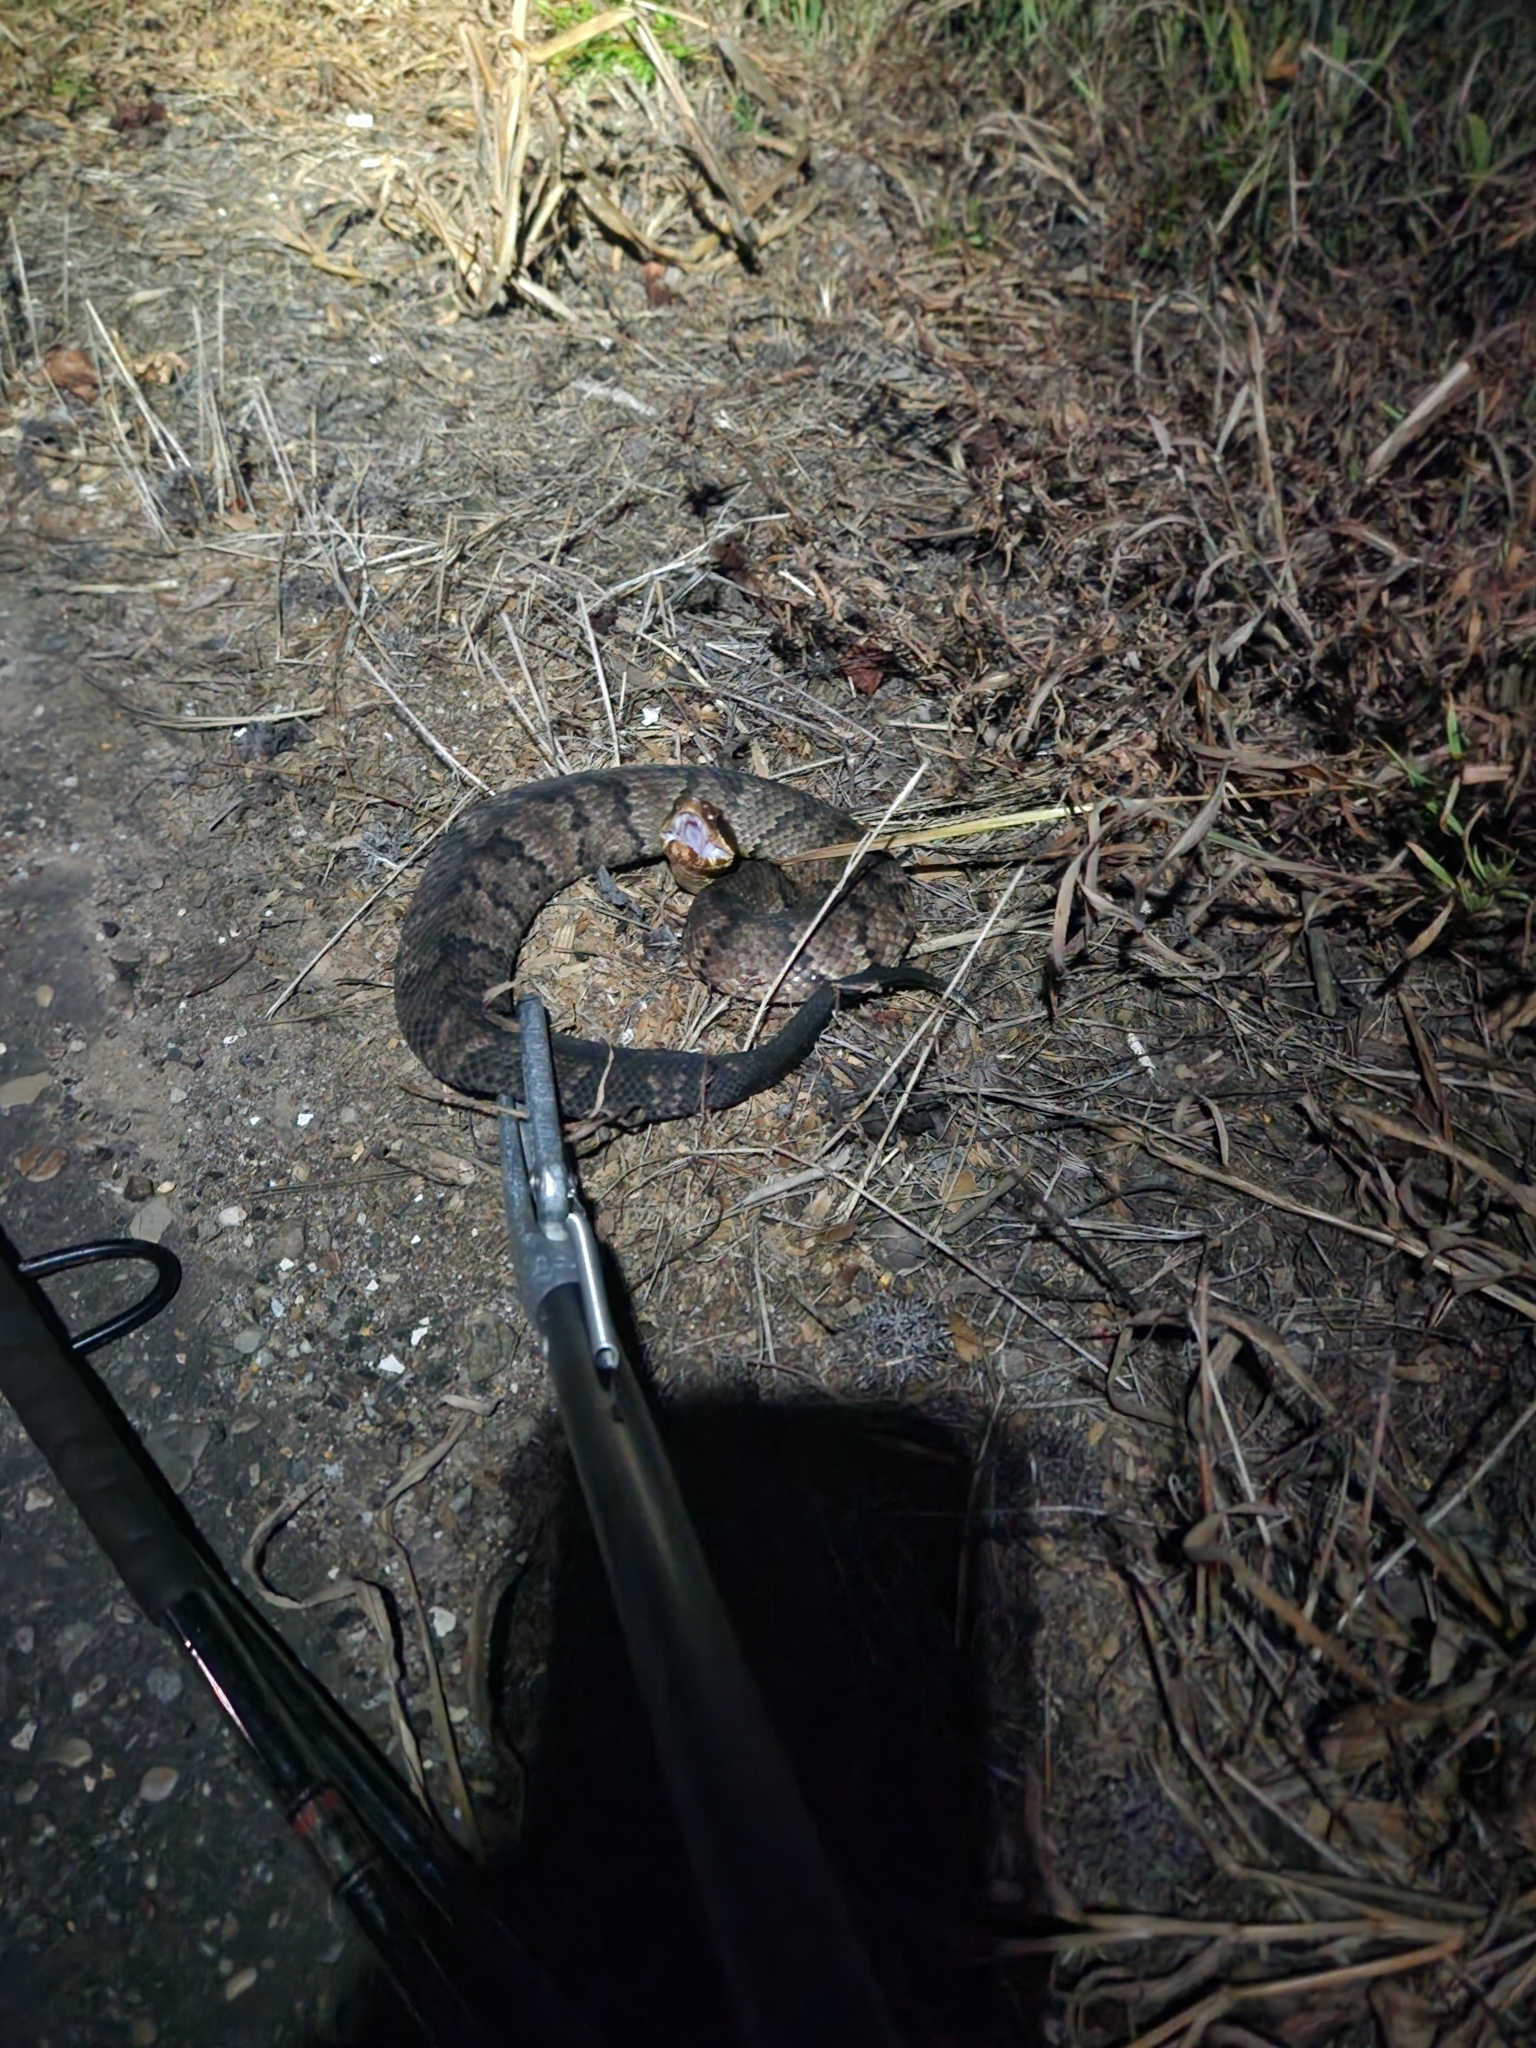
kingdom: Animalia
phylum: Chordata
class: Squamata
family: Viperidae
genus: Agkistrodon
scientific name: Agkistrodon piscivorus
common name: Cottonmouth
